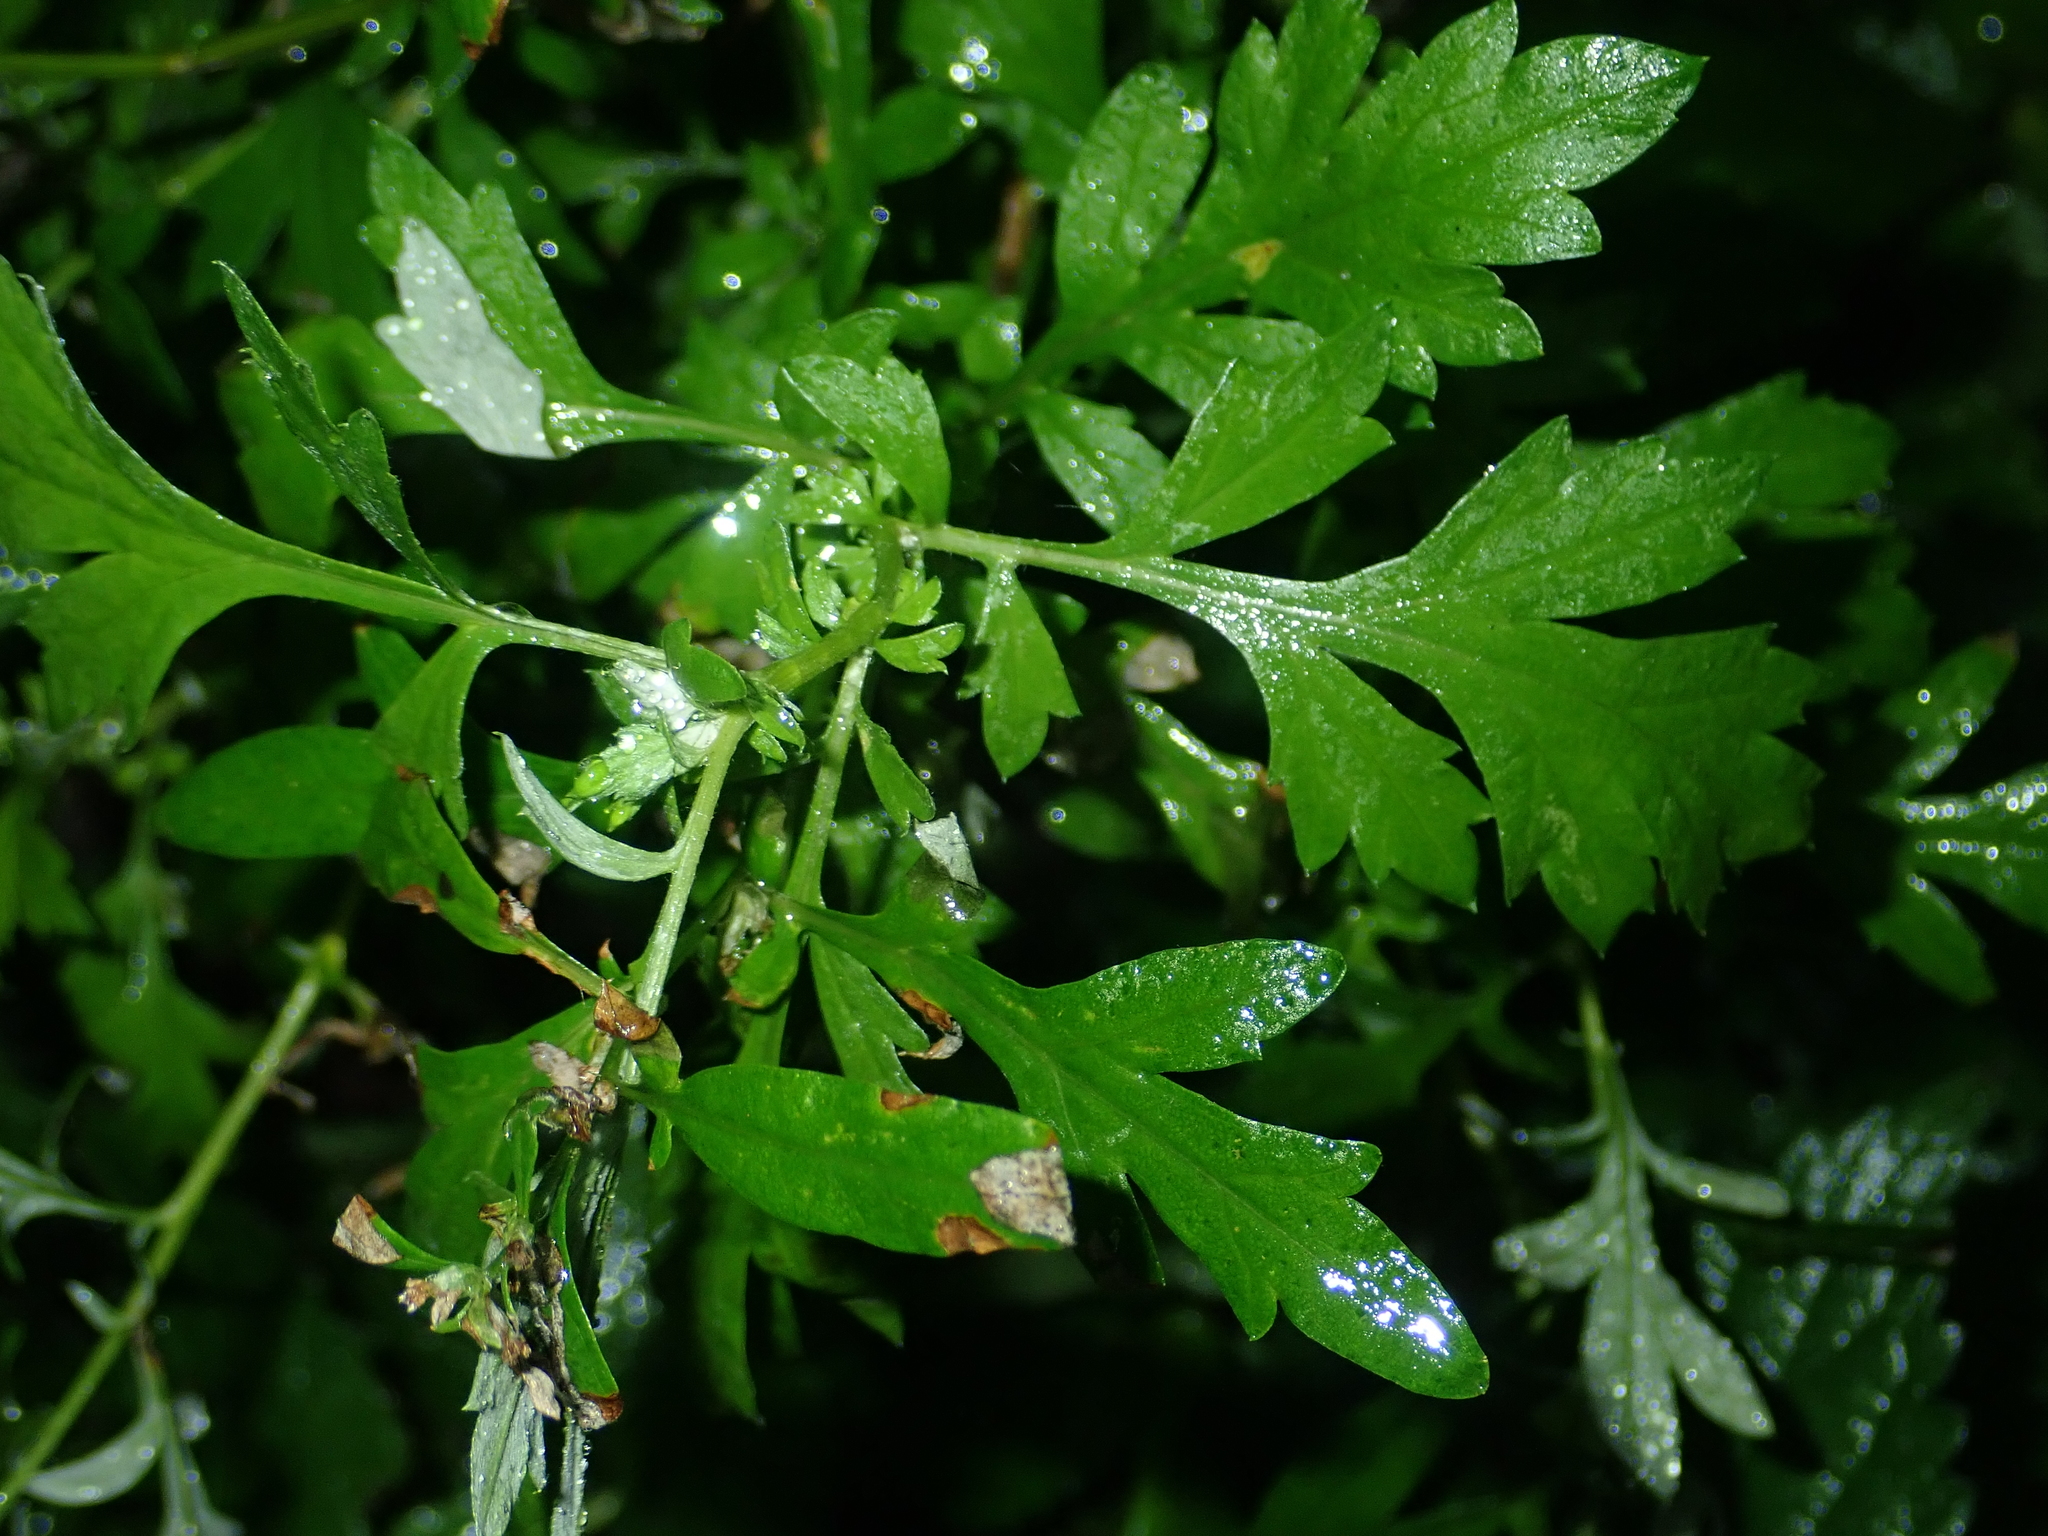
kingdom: Plantae
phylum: Tracheophyta
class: Magnoliopsida
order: Asterales
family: Asteraceae
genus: Artemisia
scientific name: Artemisia vulgaris
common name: Mugwort
